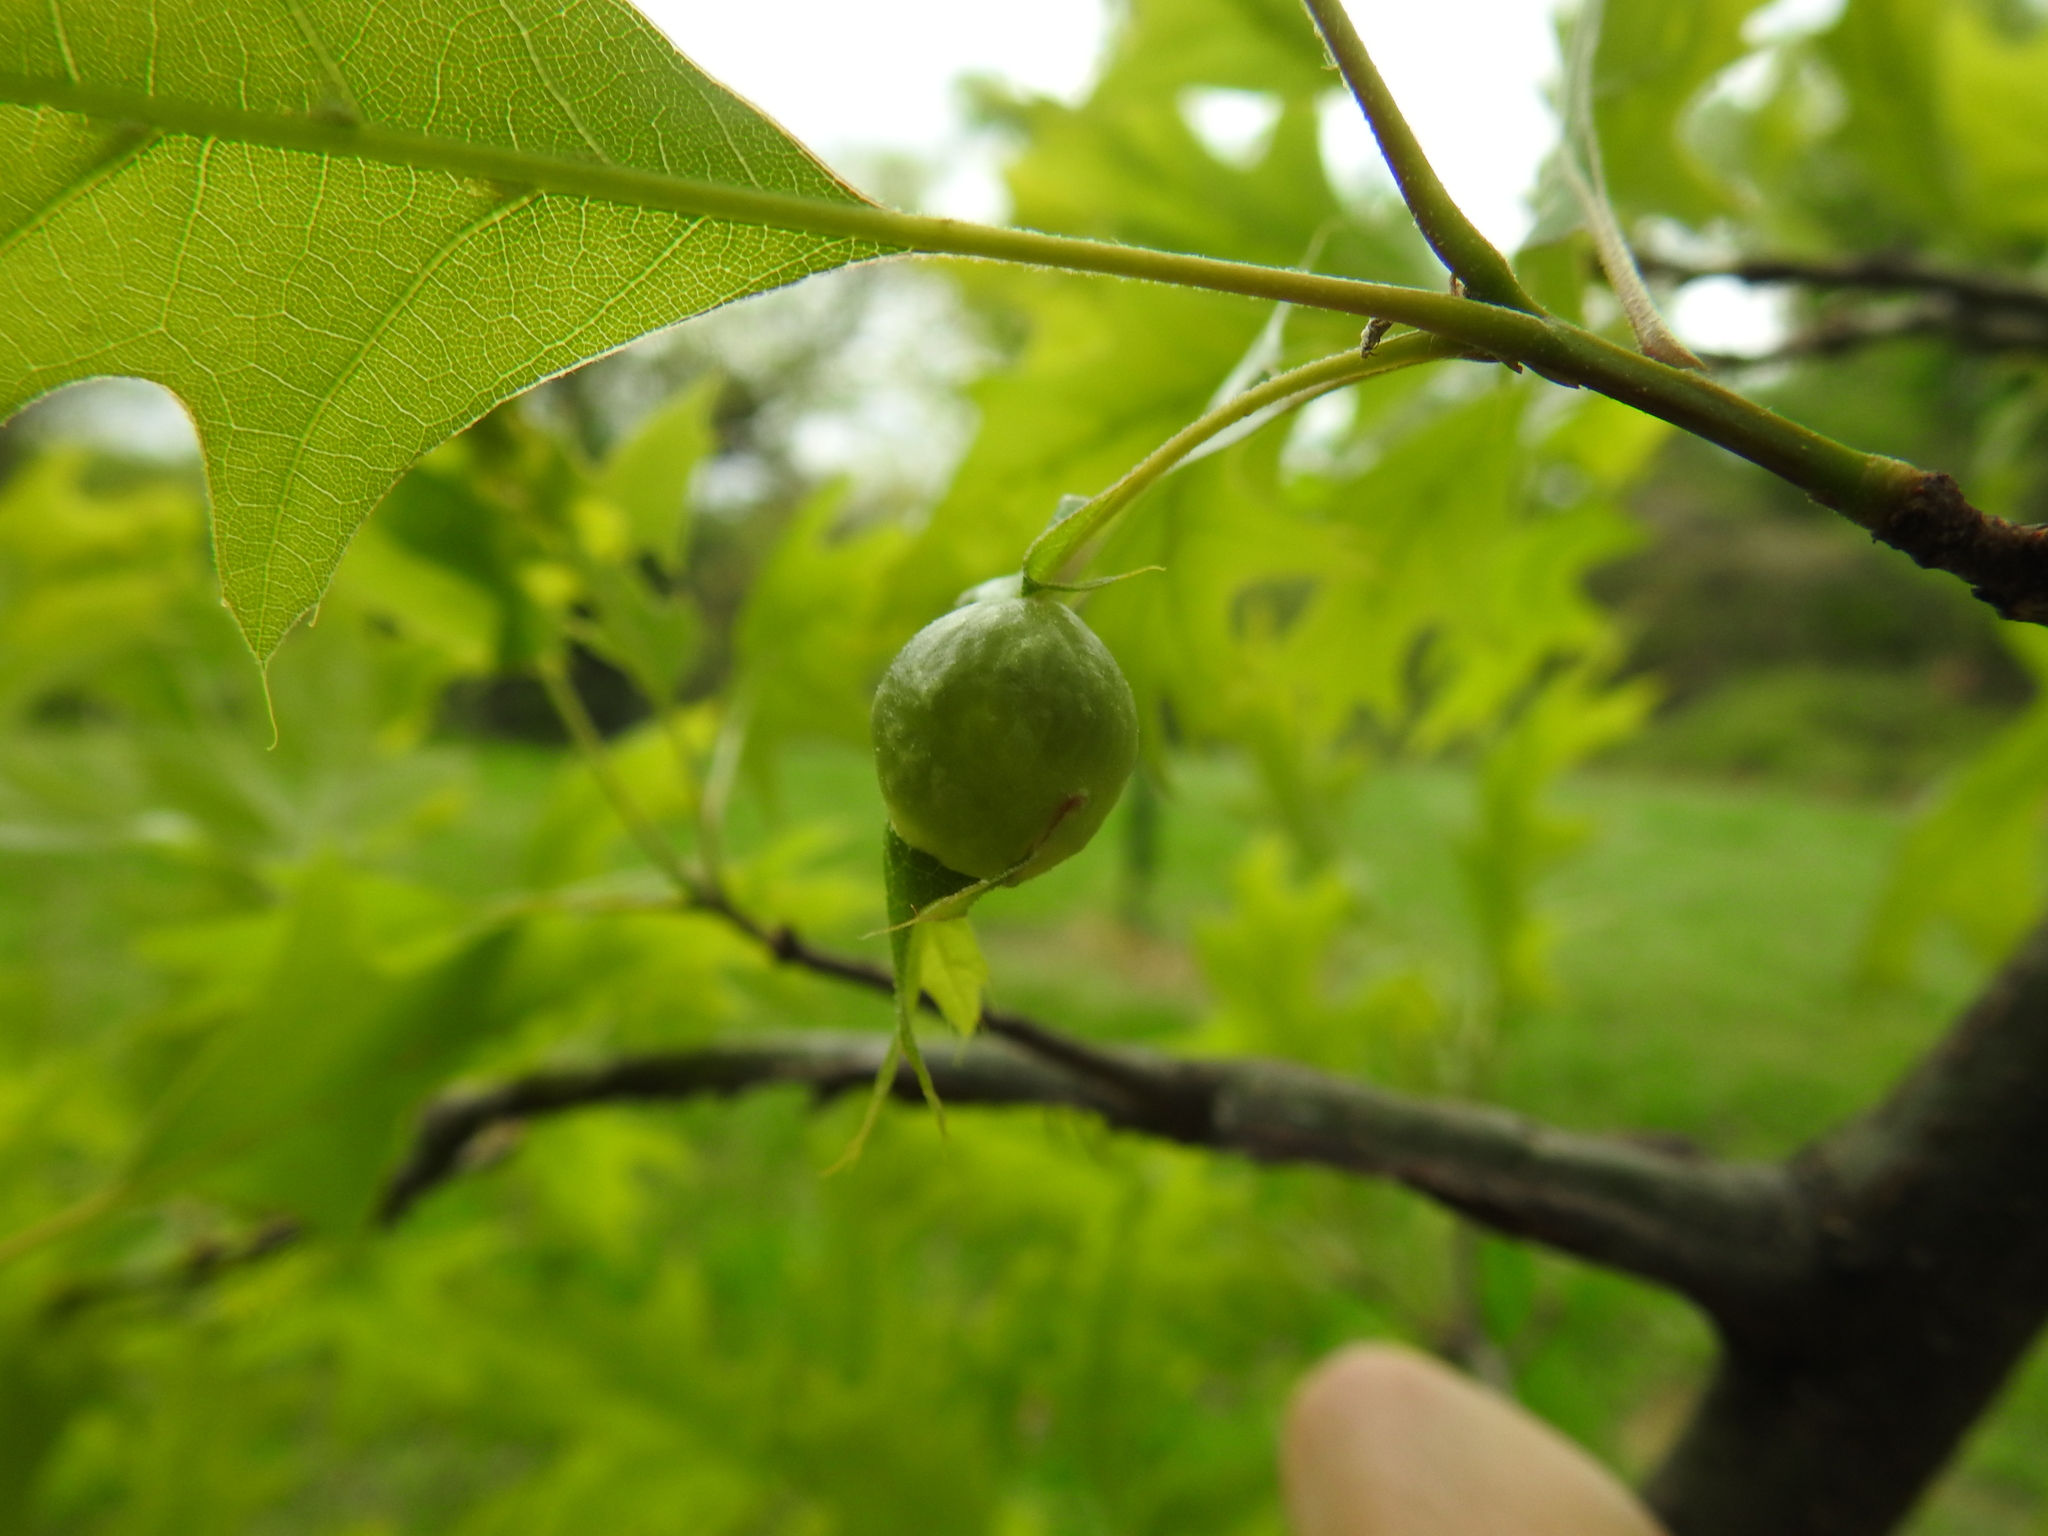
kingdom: Animalia
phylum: Arthropoda
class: Insecta
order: Hymenoptera
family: Cynipidae
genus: Dryocosmus
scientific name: Dryocosmus quercuspalustris
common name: Succulent oak gall wasp
